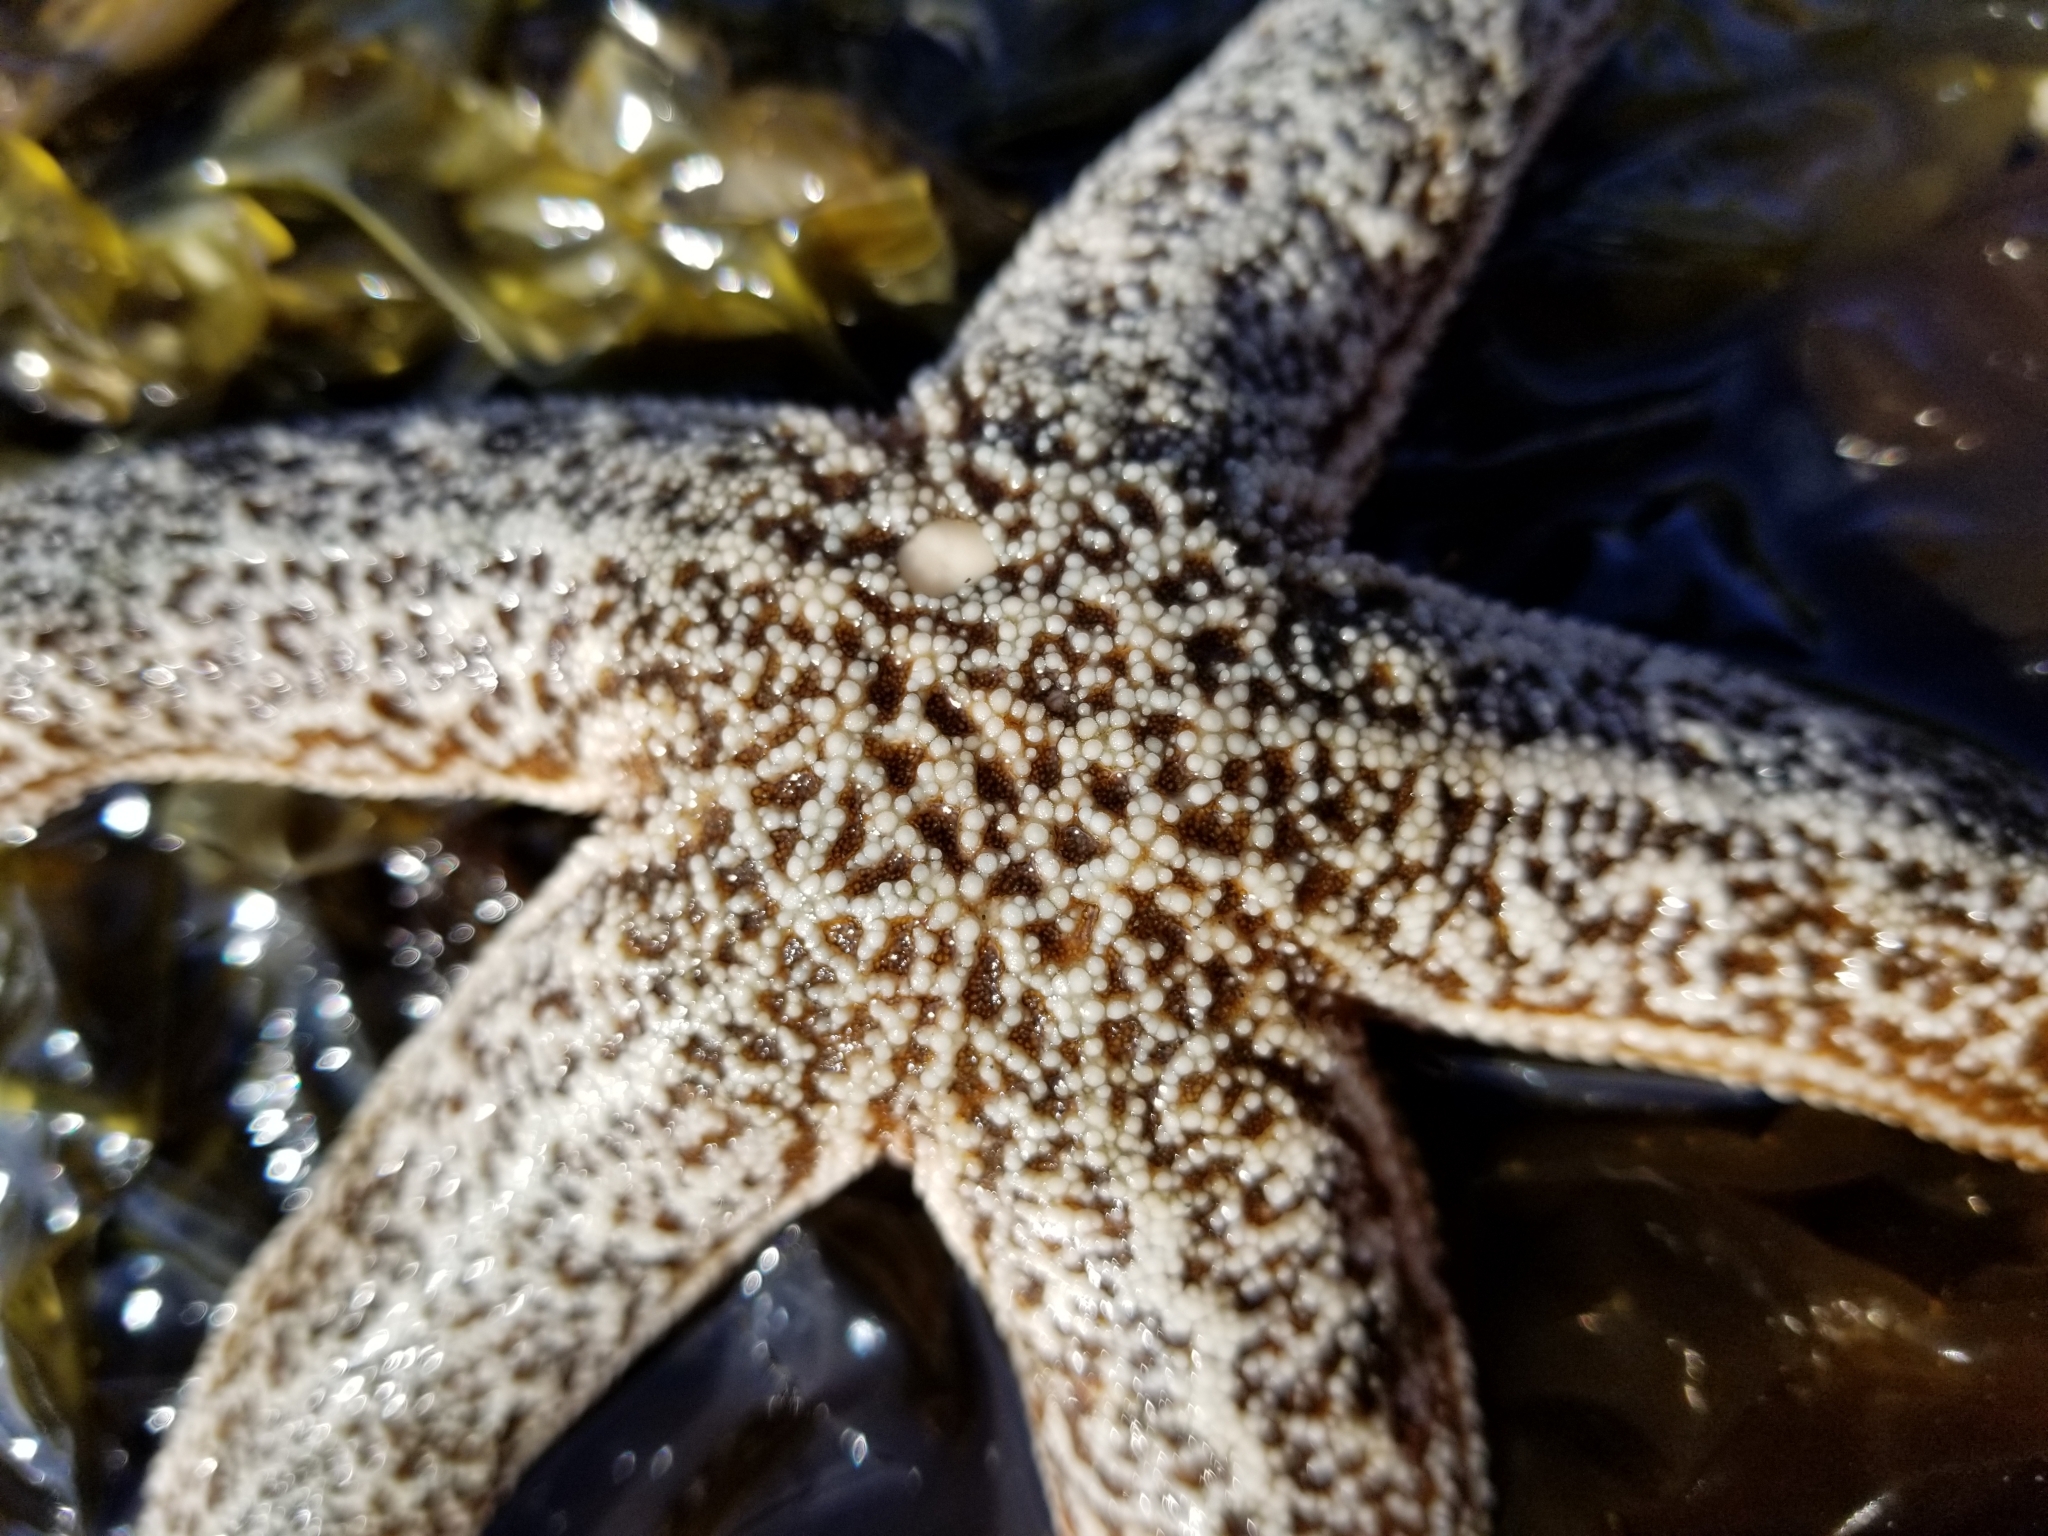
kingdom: Animalia
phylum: Echinodermata
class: Asteroidea
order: Forcipulatida
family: Asteriidae
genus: Evasterias
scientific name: Evasterias troschelii
